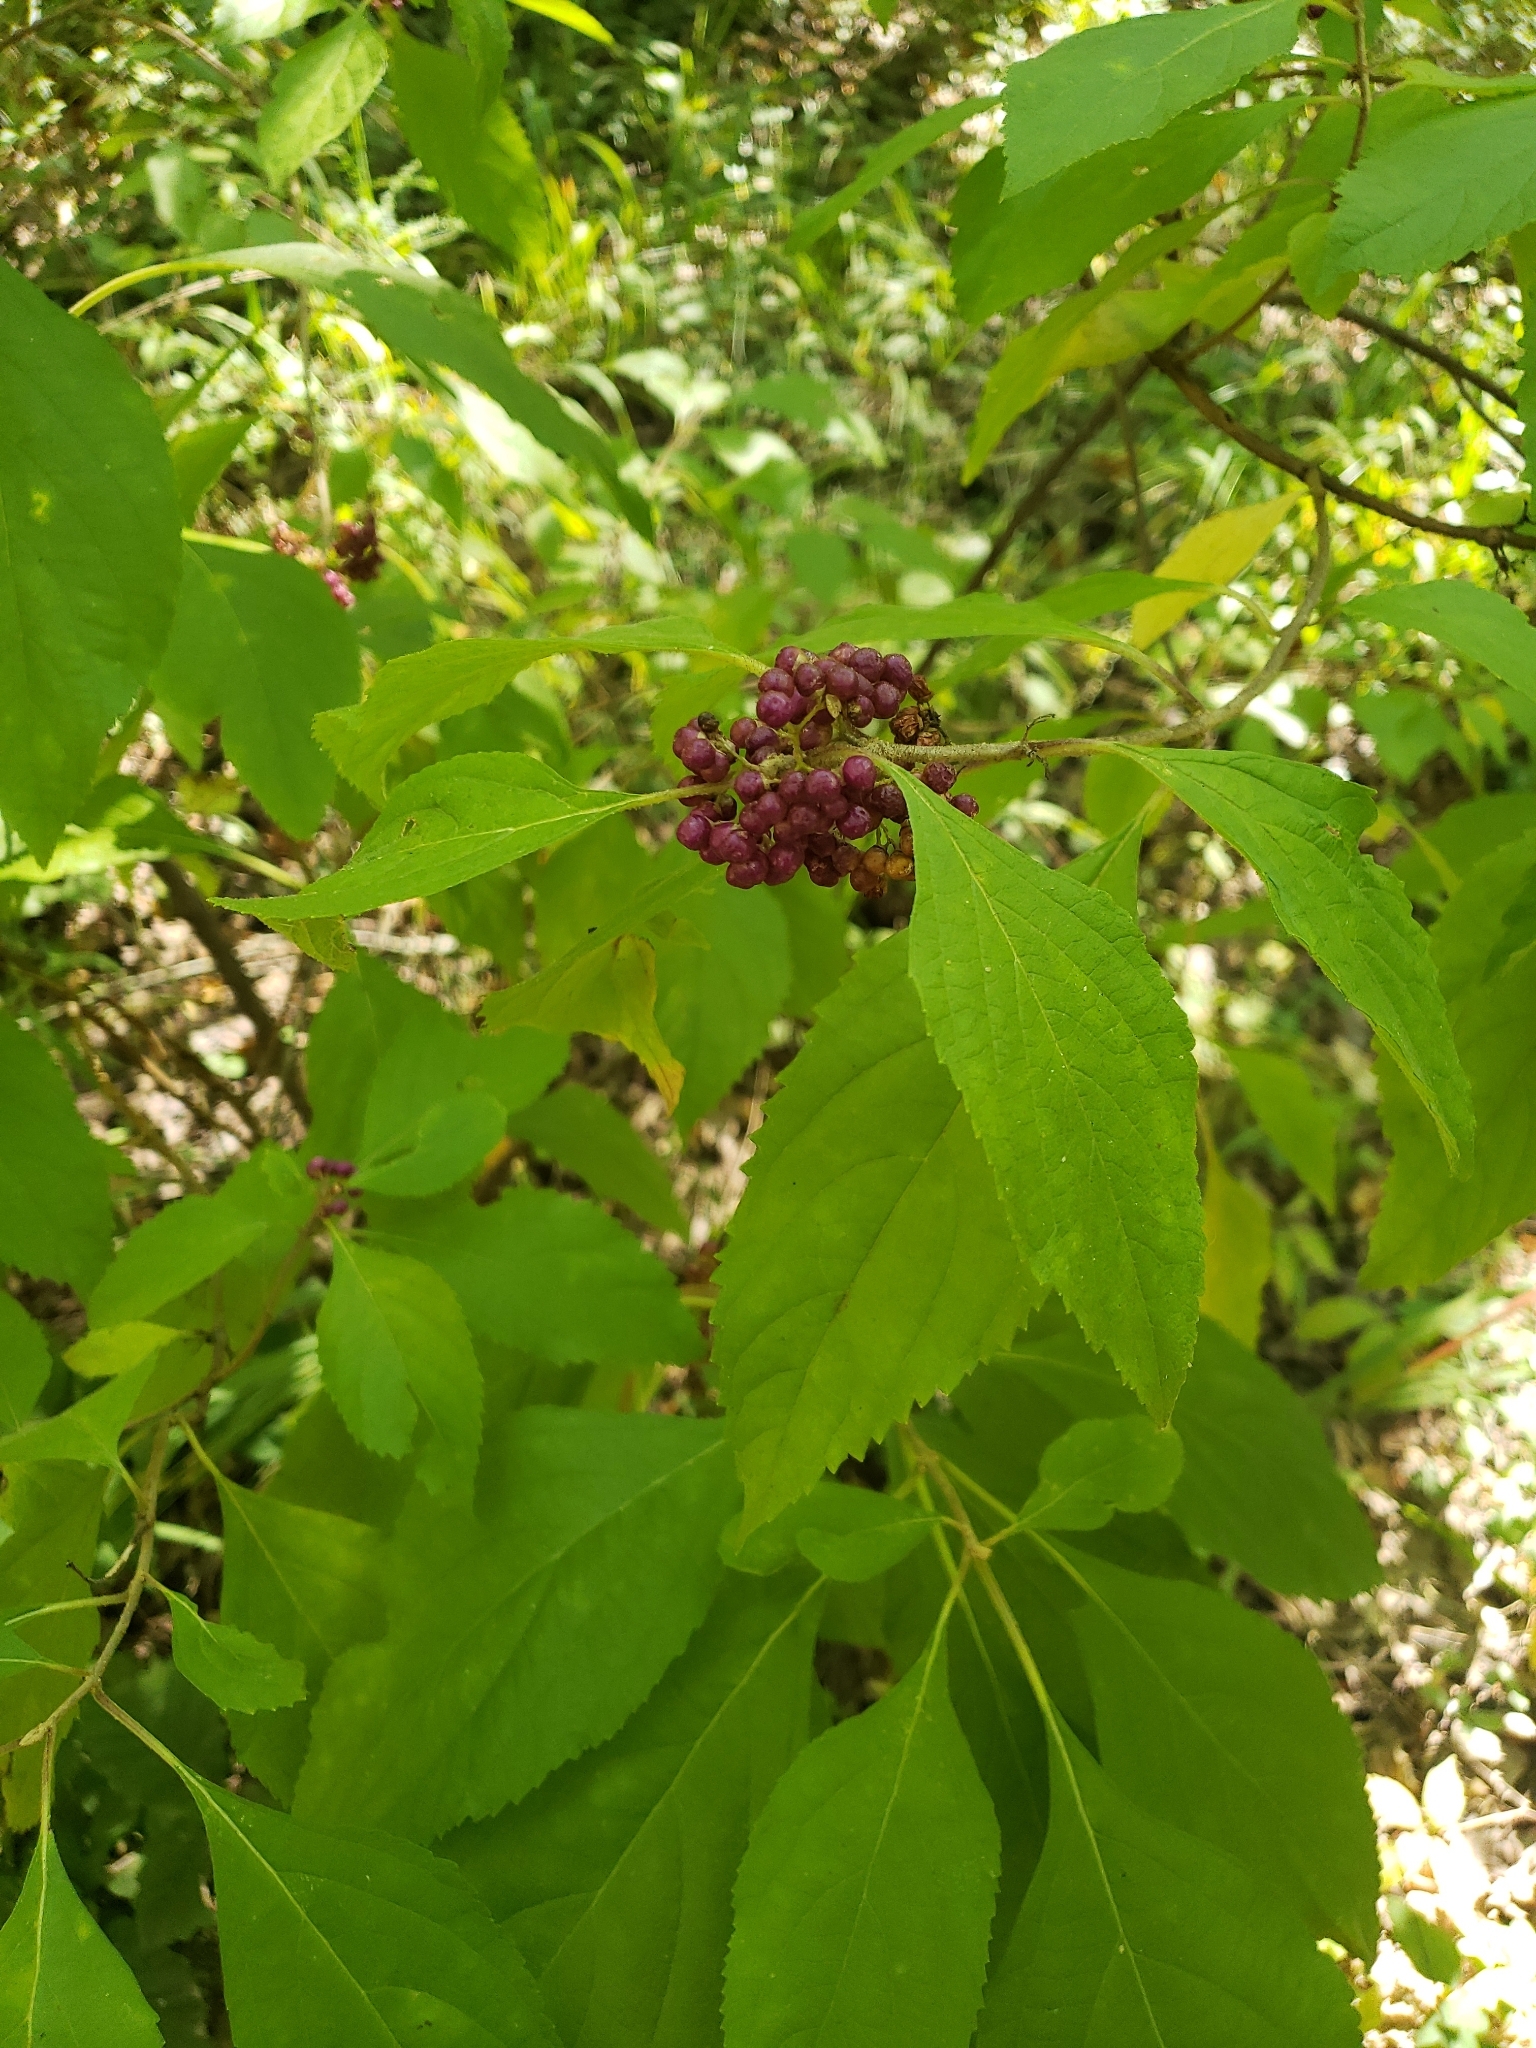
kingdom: Plantae
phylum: Tracheophyta
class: Magnoliopsida
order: Lamiales
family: Lamiaceae
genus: Callicarpa
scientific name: Callicarpa americana
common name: American beautyberry
